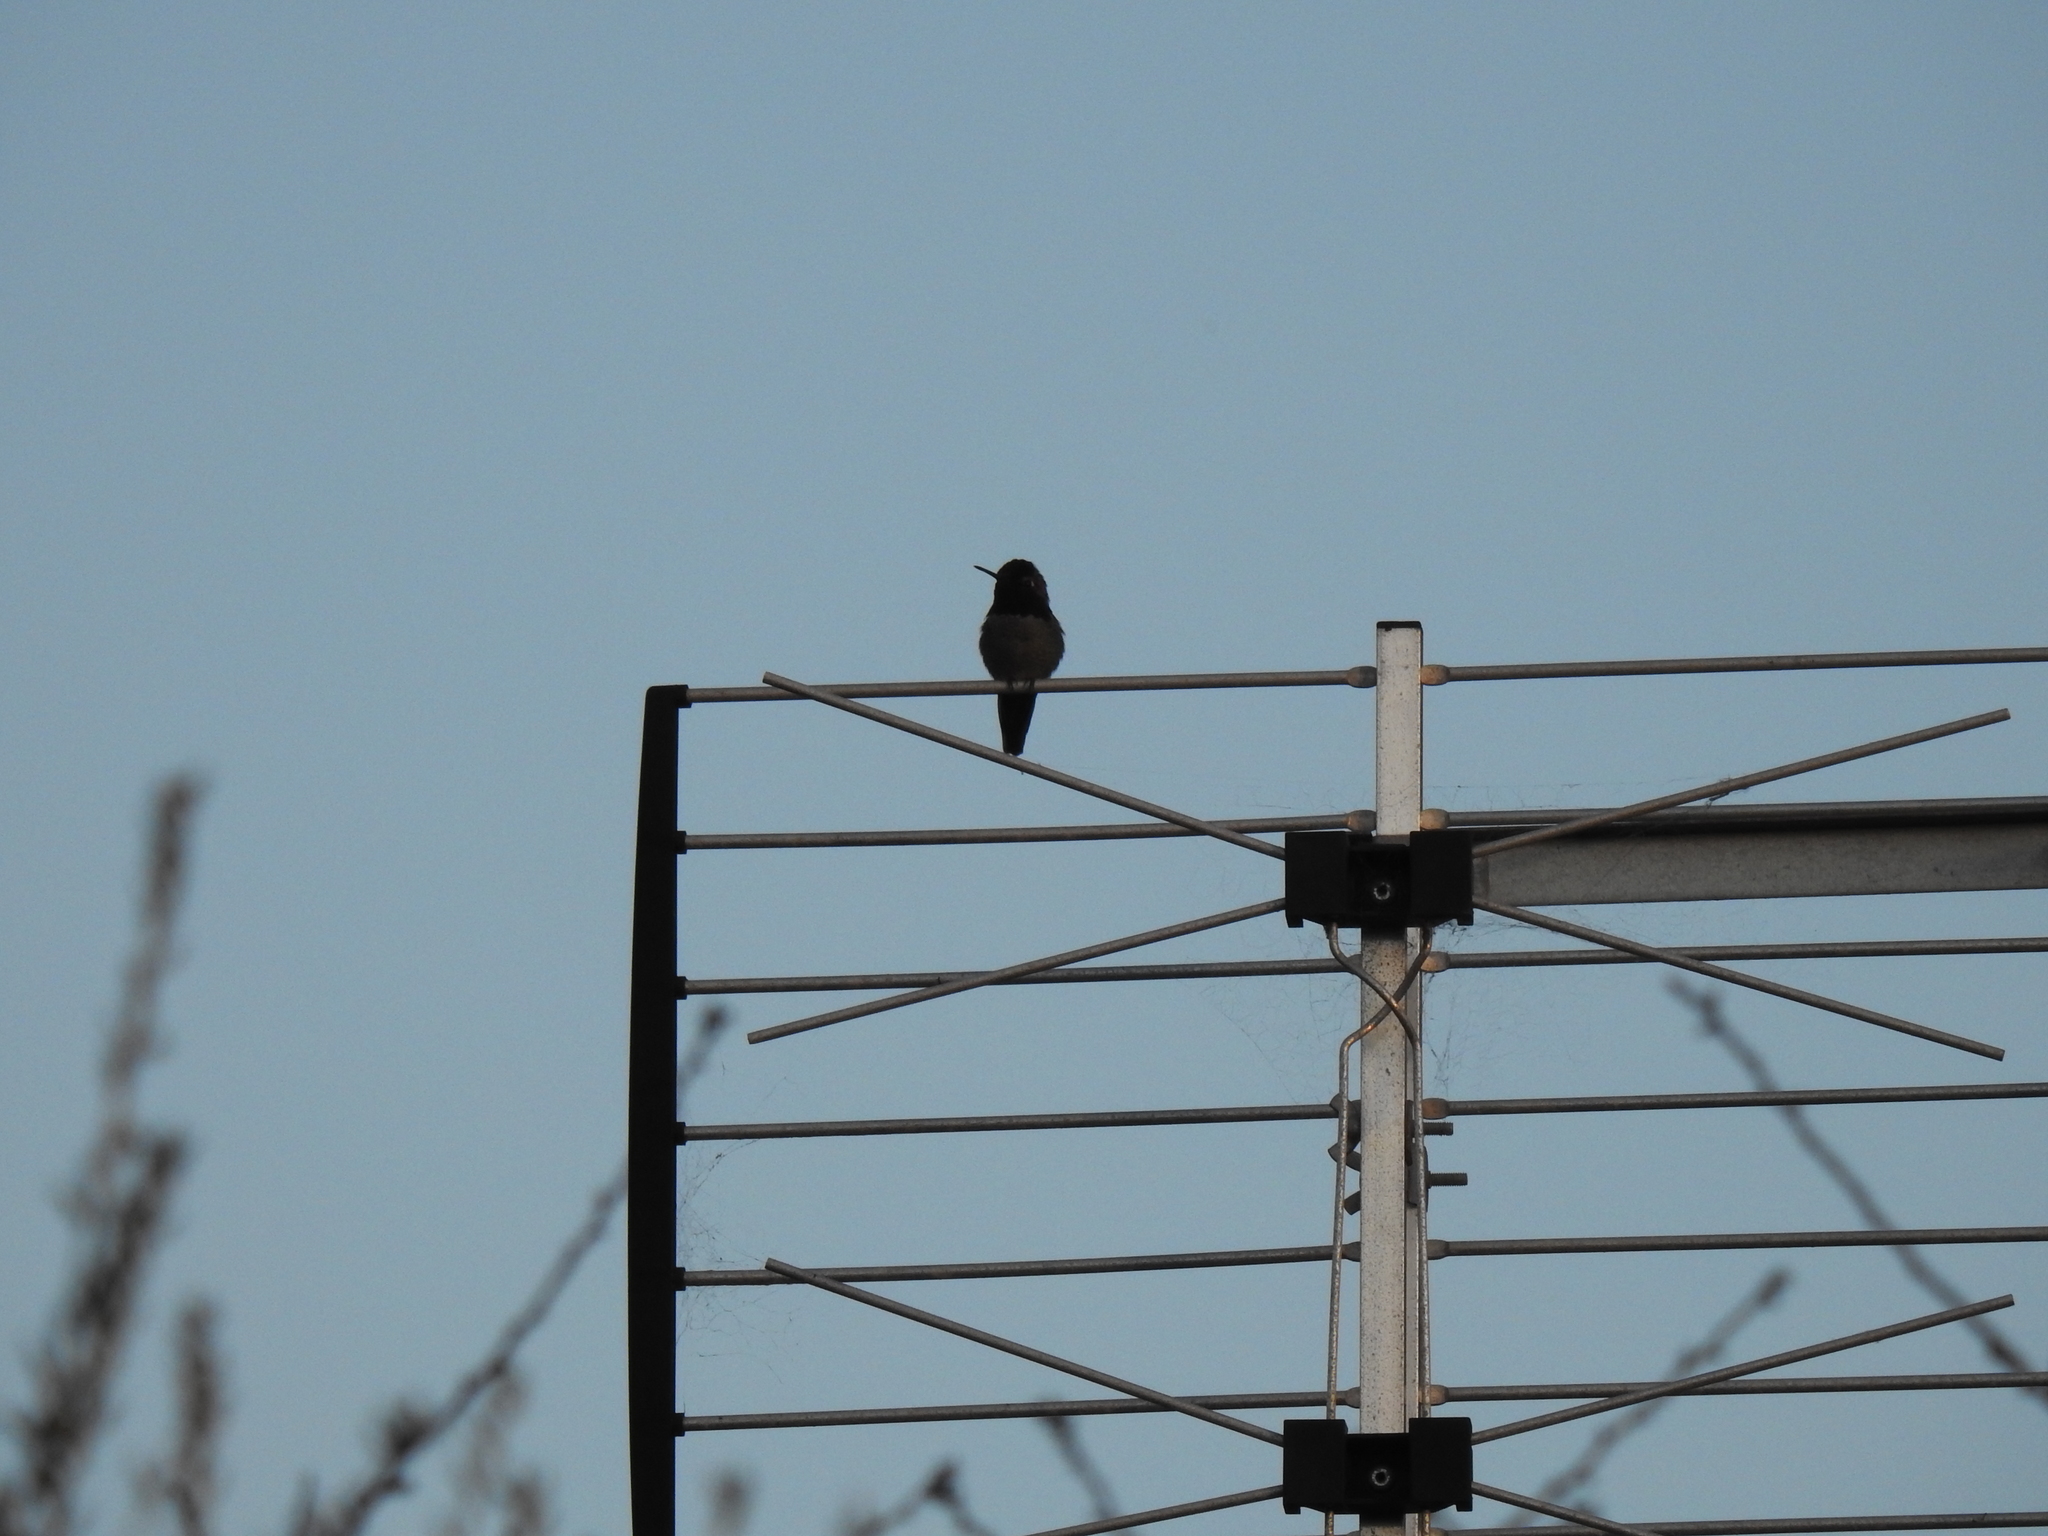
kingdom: Animalia
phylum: Chordata
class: Aves
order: Apodiformes
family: Trochilidae
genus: Calypte
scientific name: Calypte anna
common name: Anna's hummingbird
